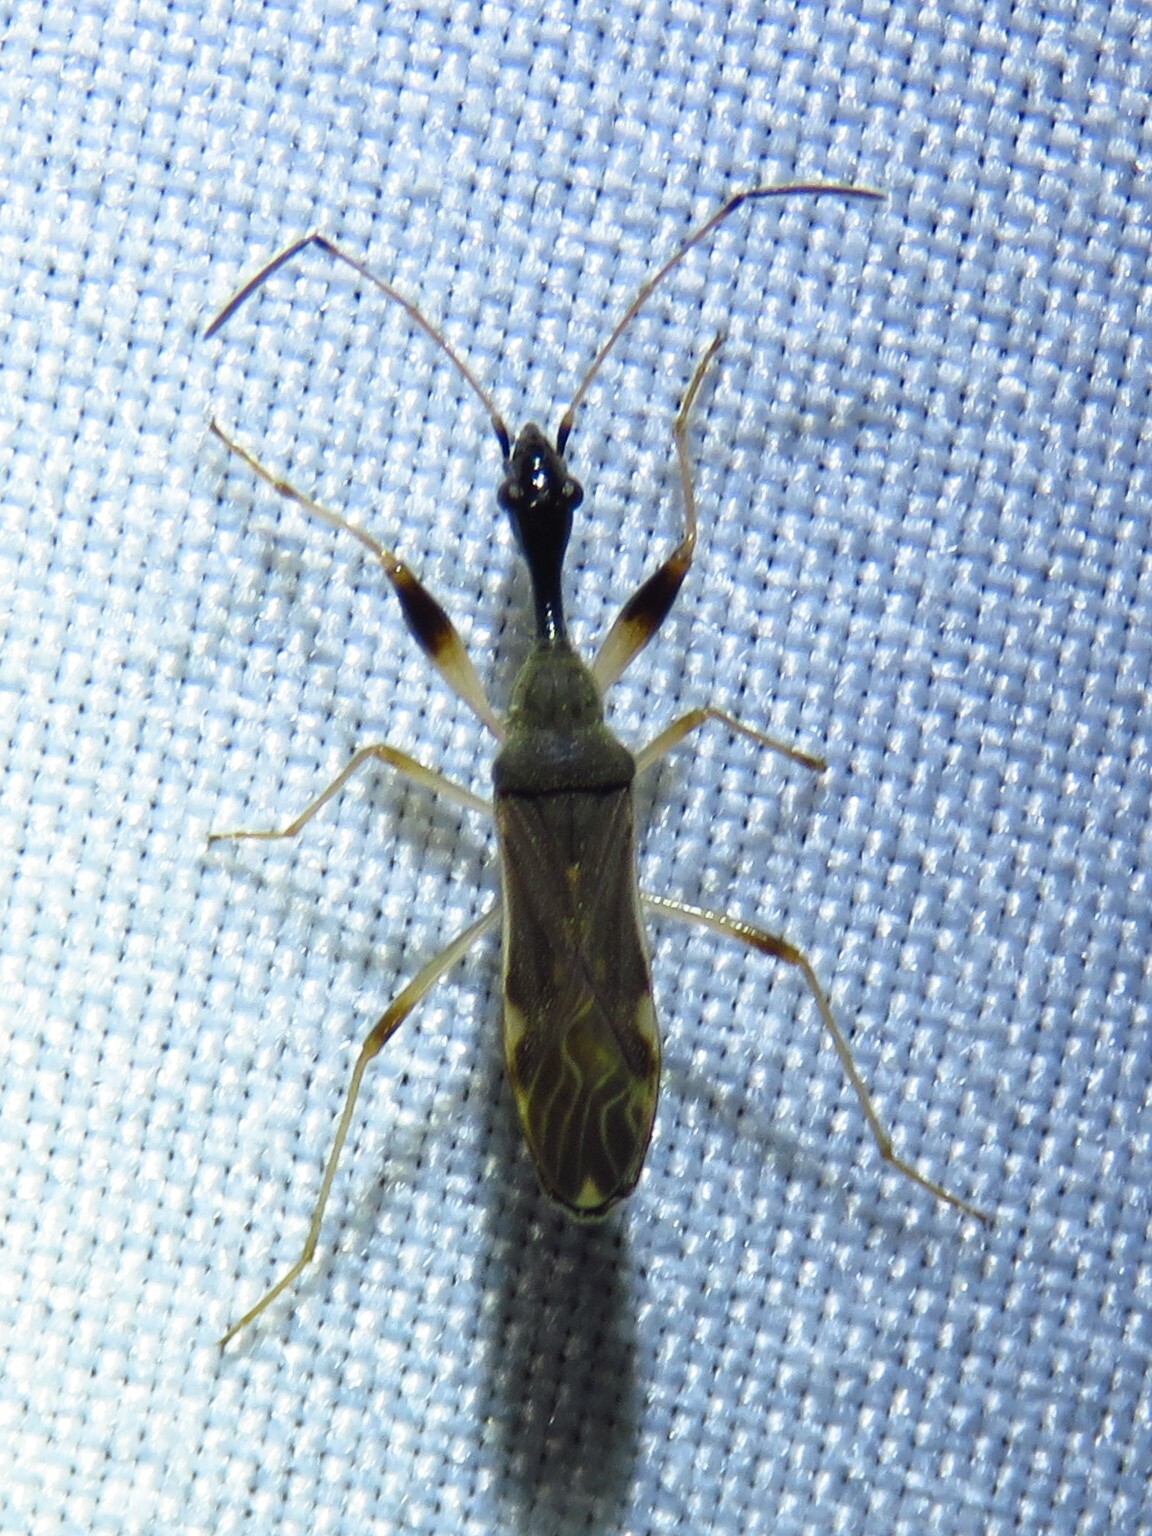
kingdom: Animalia
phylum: Arthropoda
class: Insecta
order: Hemiptera
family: Rhyparochromidae
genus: Myodocha
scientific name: Myodocha serripes
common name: Long-necked seed bug
